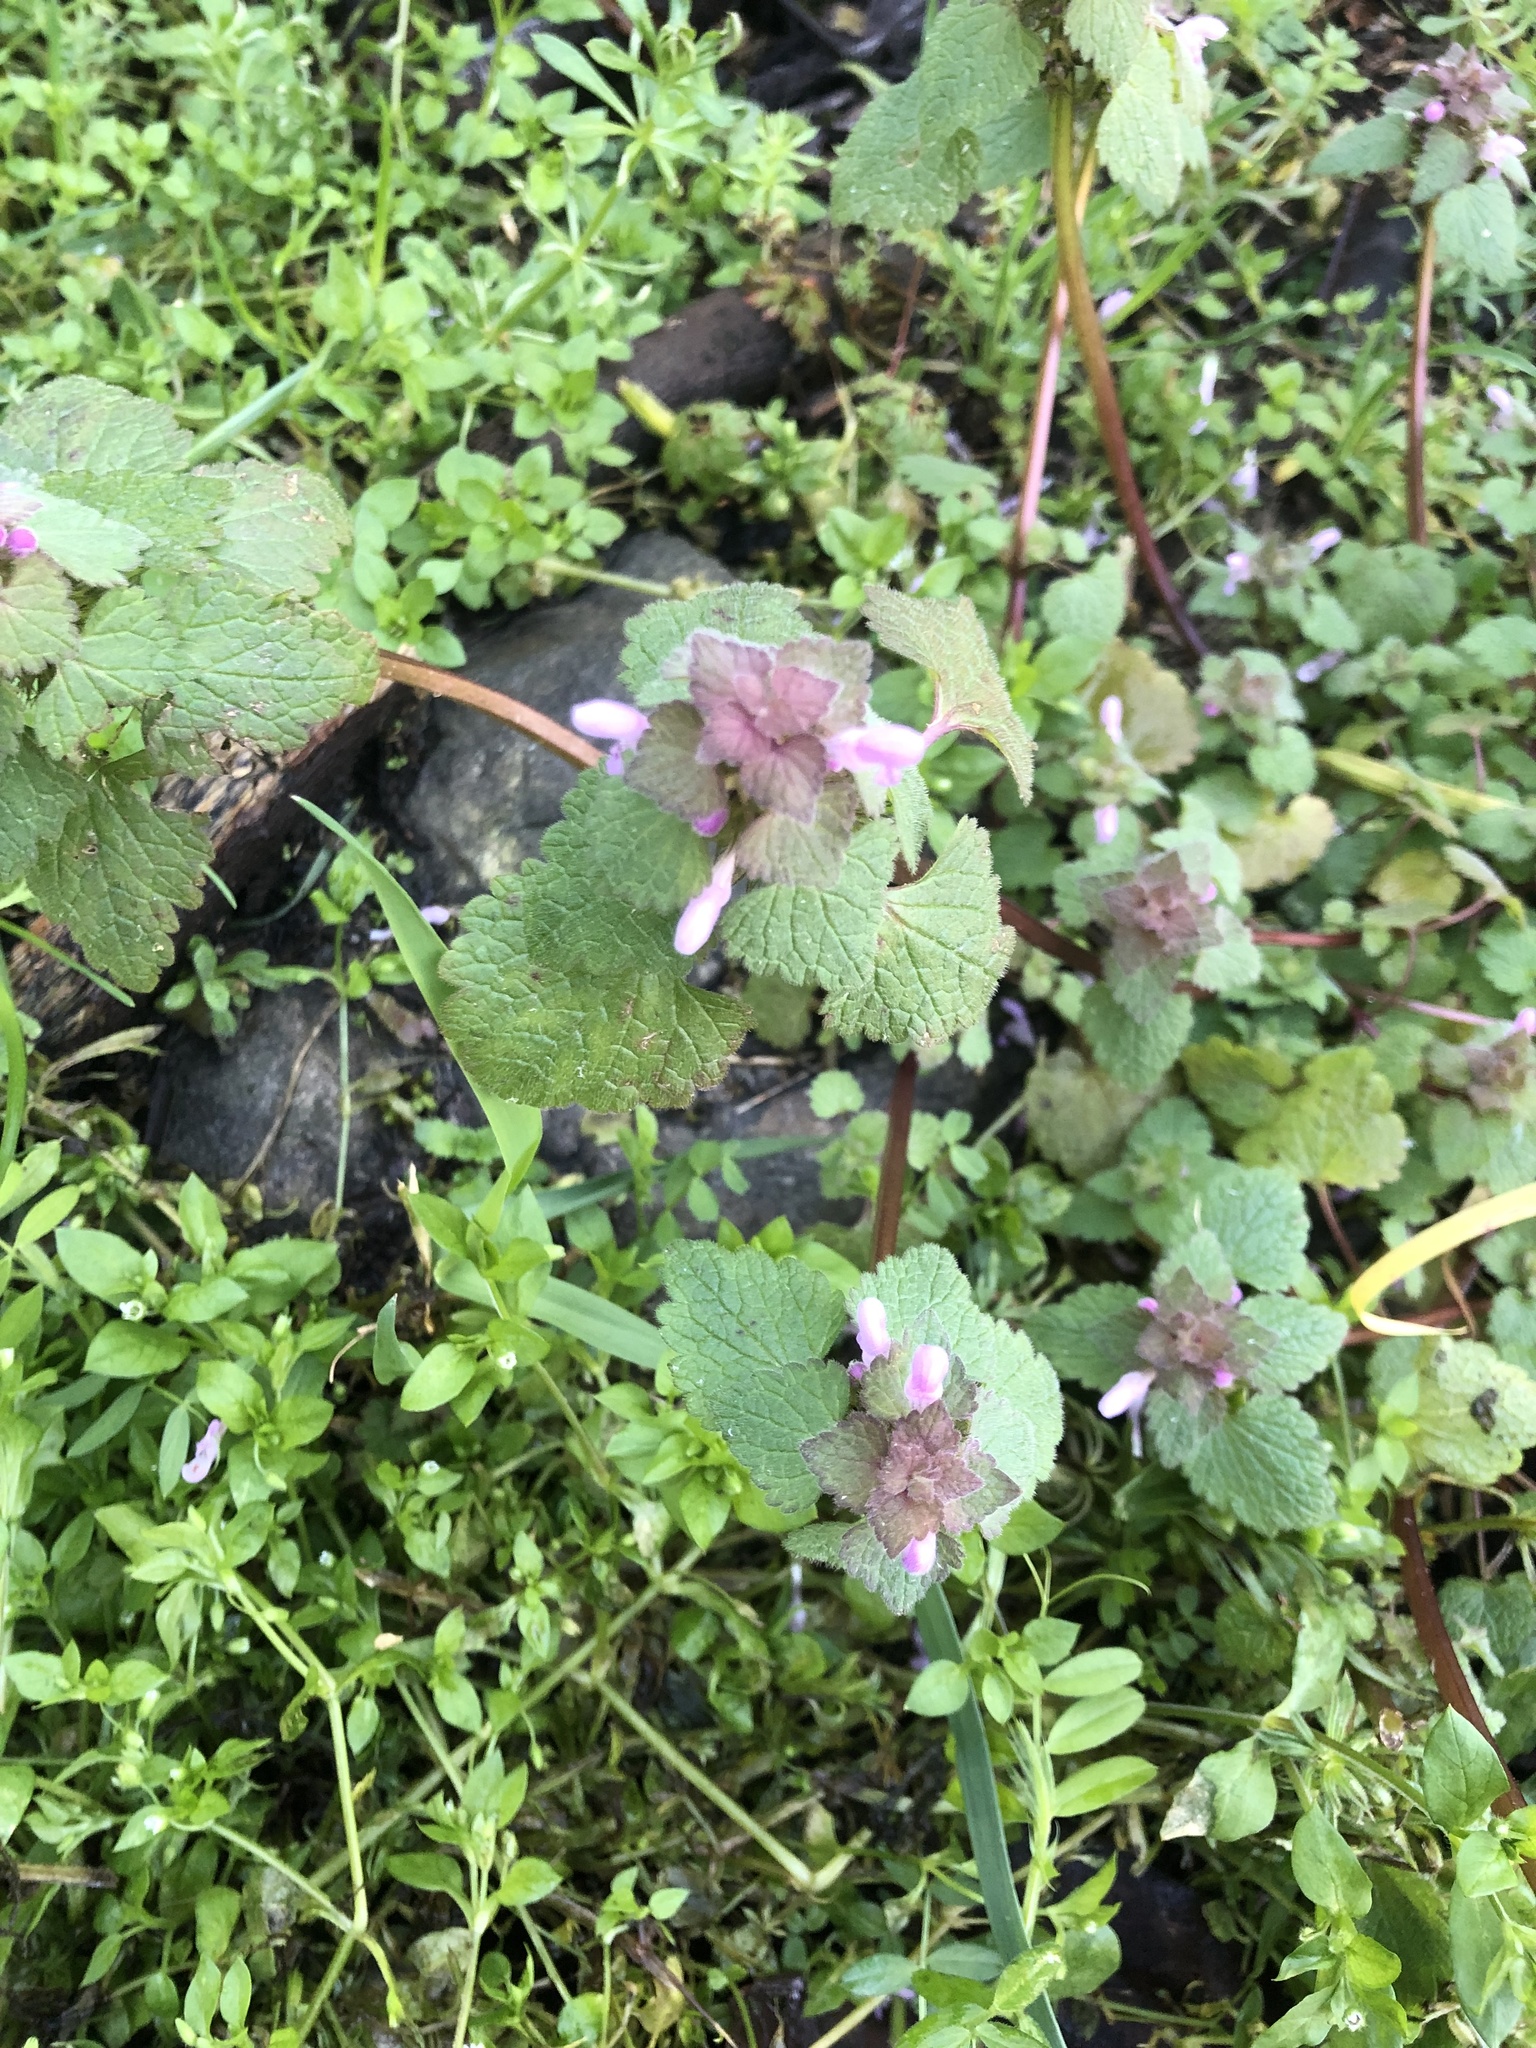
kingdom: Plantae
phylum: Tracheophyta
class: Magnoliopsida
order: Lamiales
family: Lamiaceae
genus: Lamium
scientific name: Lamium purpureum
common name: Red dead-nettle
